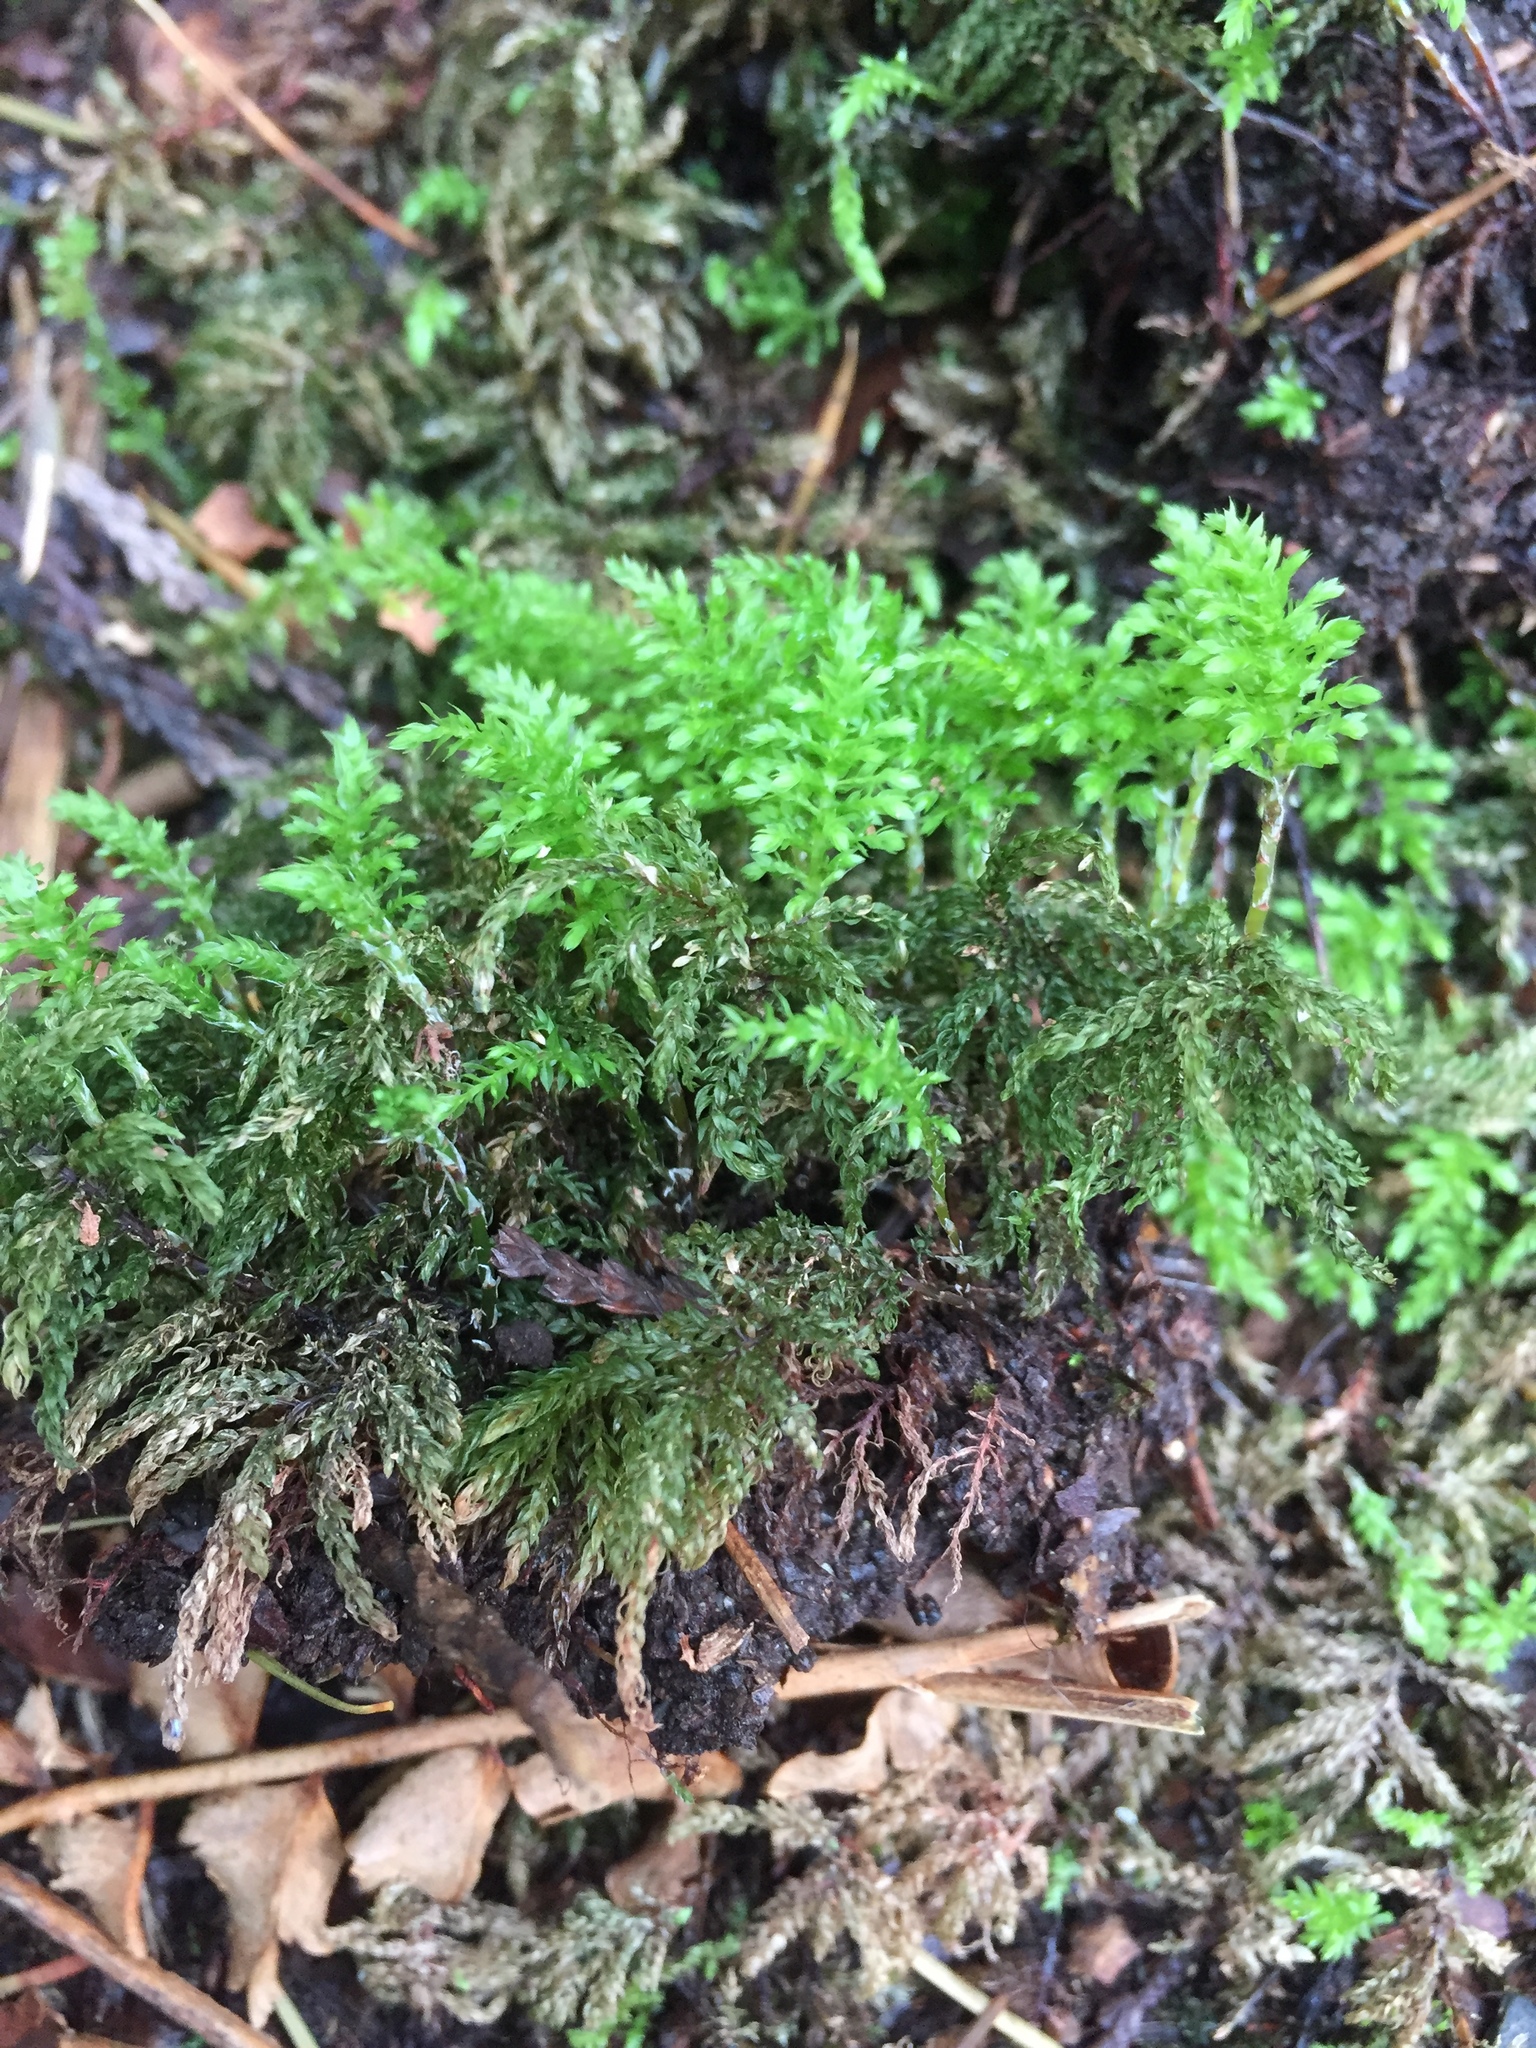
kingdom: Plantae
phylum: Bryophyta
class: Bryopsida
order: Bryales
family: Mniaceae
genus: Leucolepis
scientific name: Leucolepis acanthoneura
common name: Leucolepis umbrella moss
